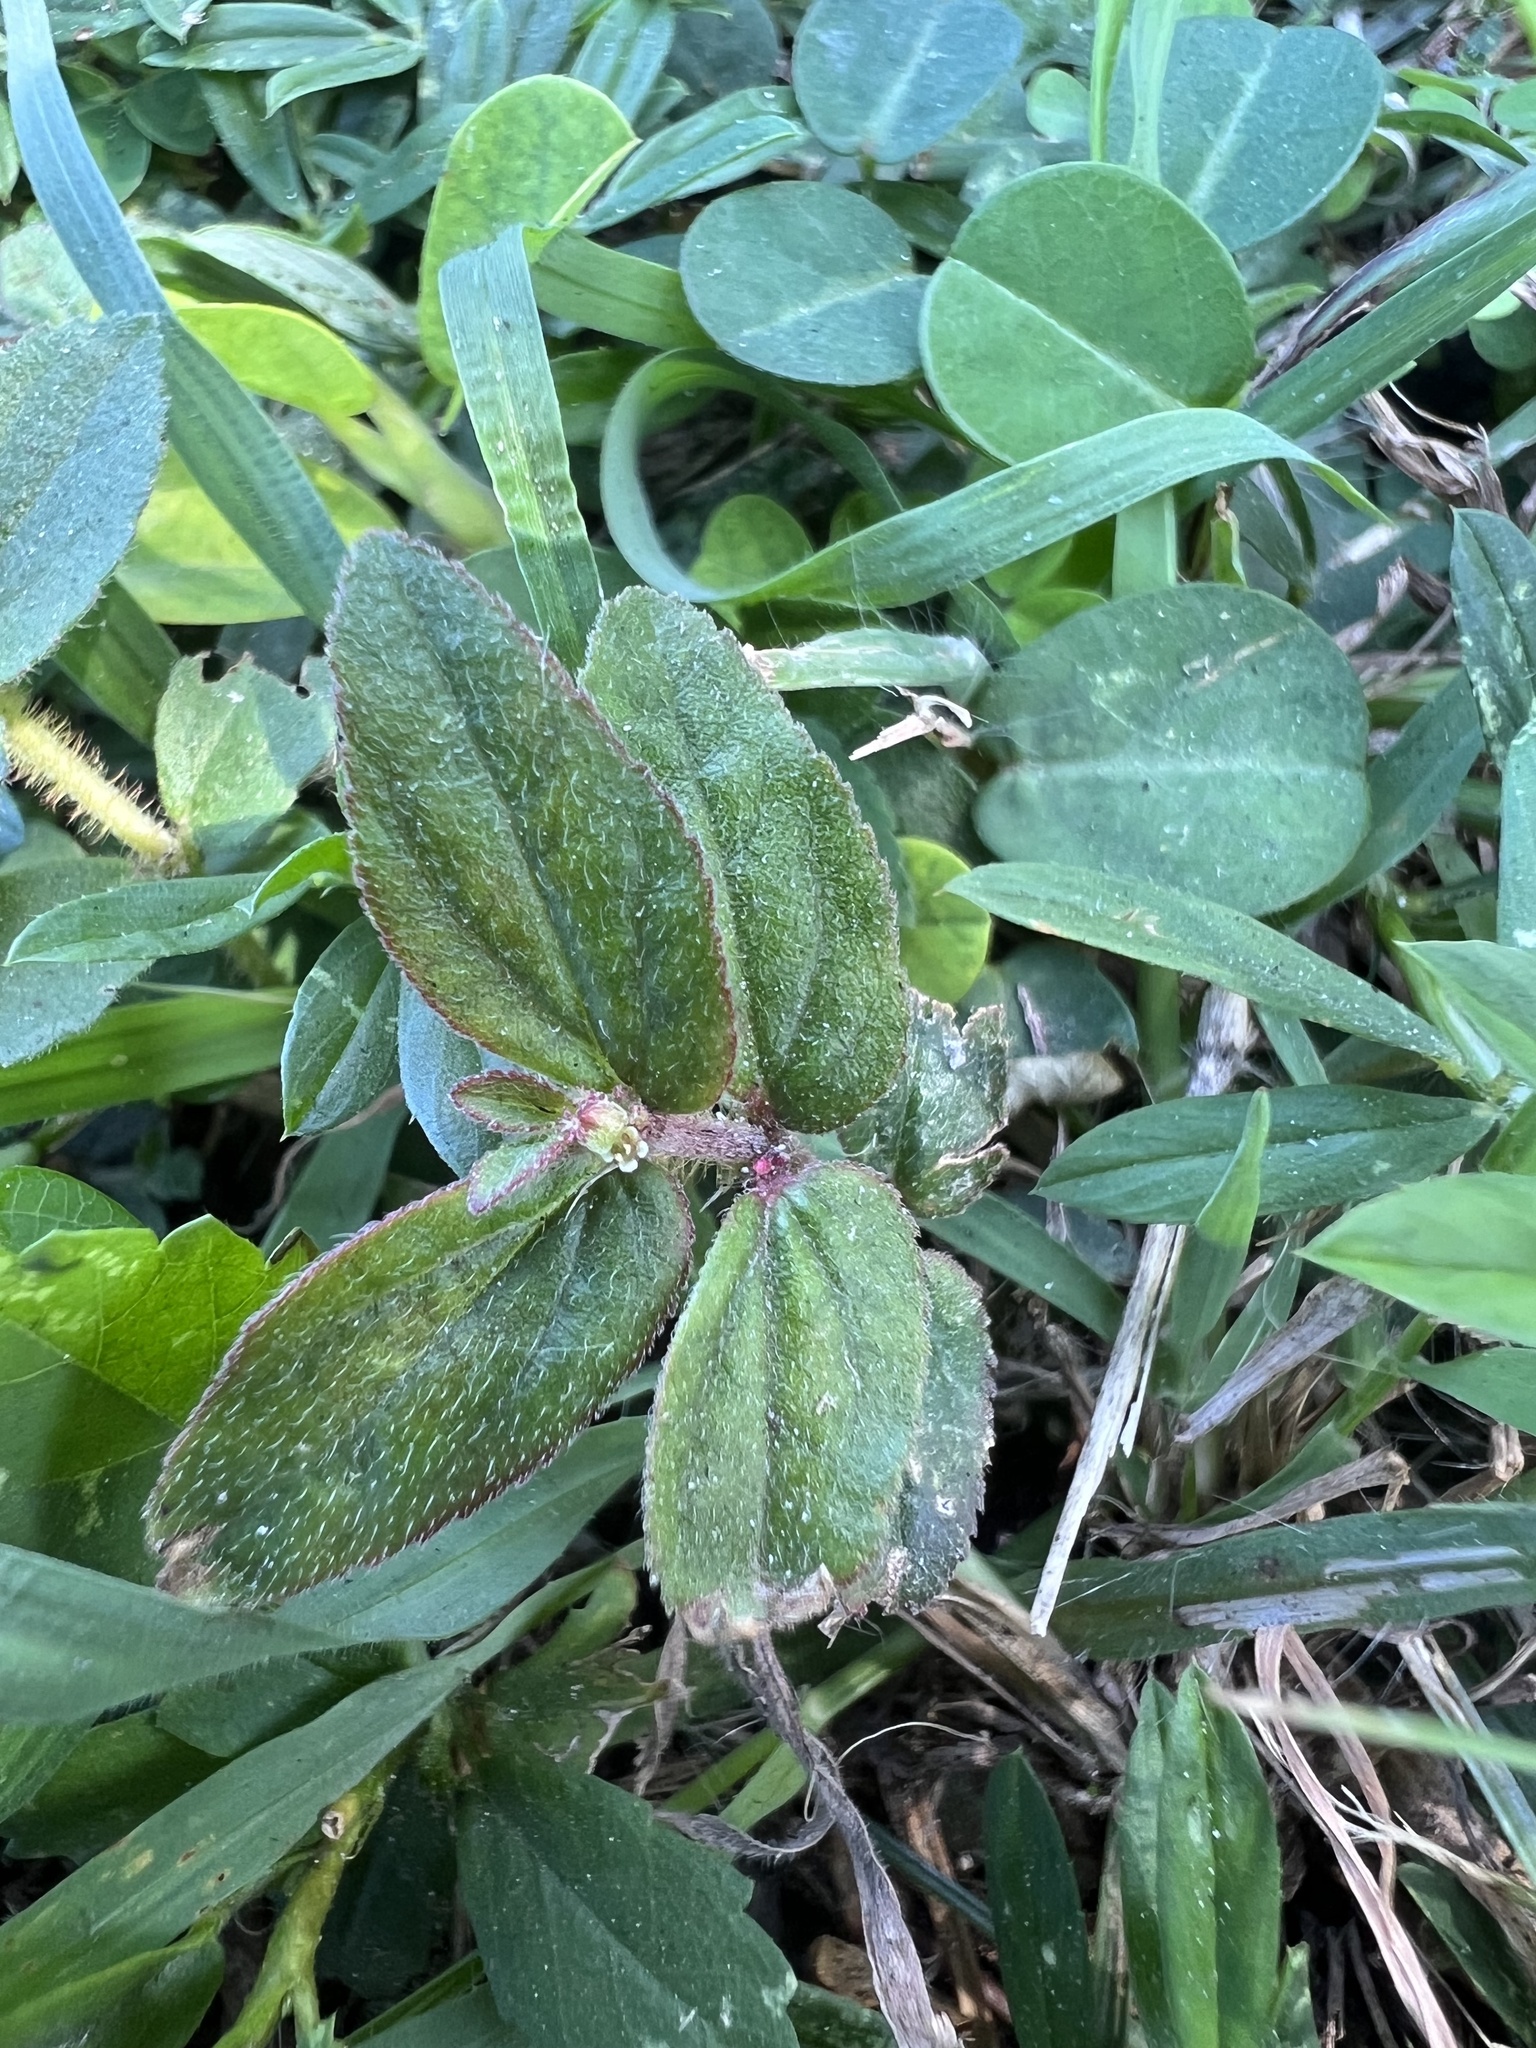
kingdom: Plantae
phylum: Tracheophyta
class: Magnoliopsida
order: Malpighiales
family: Euphorbiaceae
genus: Euphorbia
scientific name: Euphorbia hirta
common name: Pillpod sandmat
